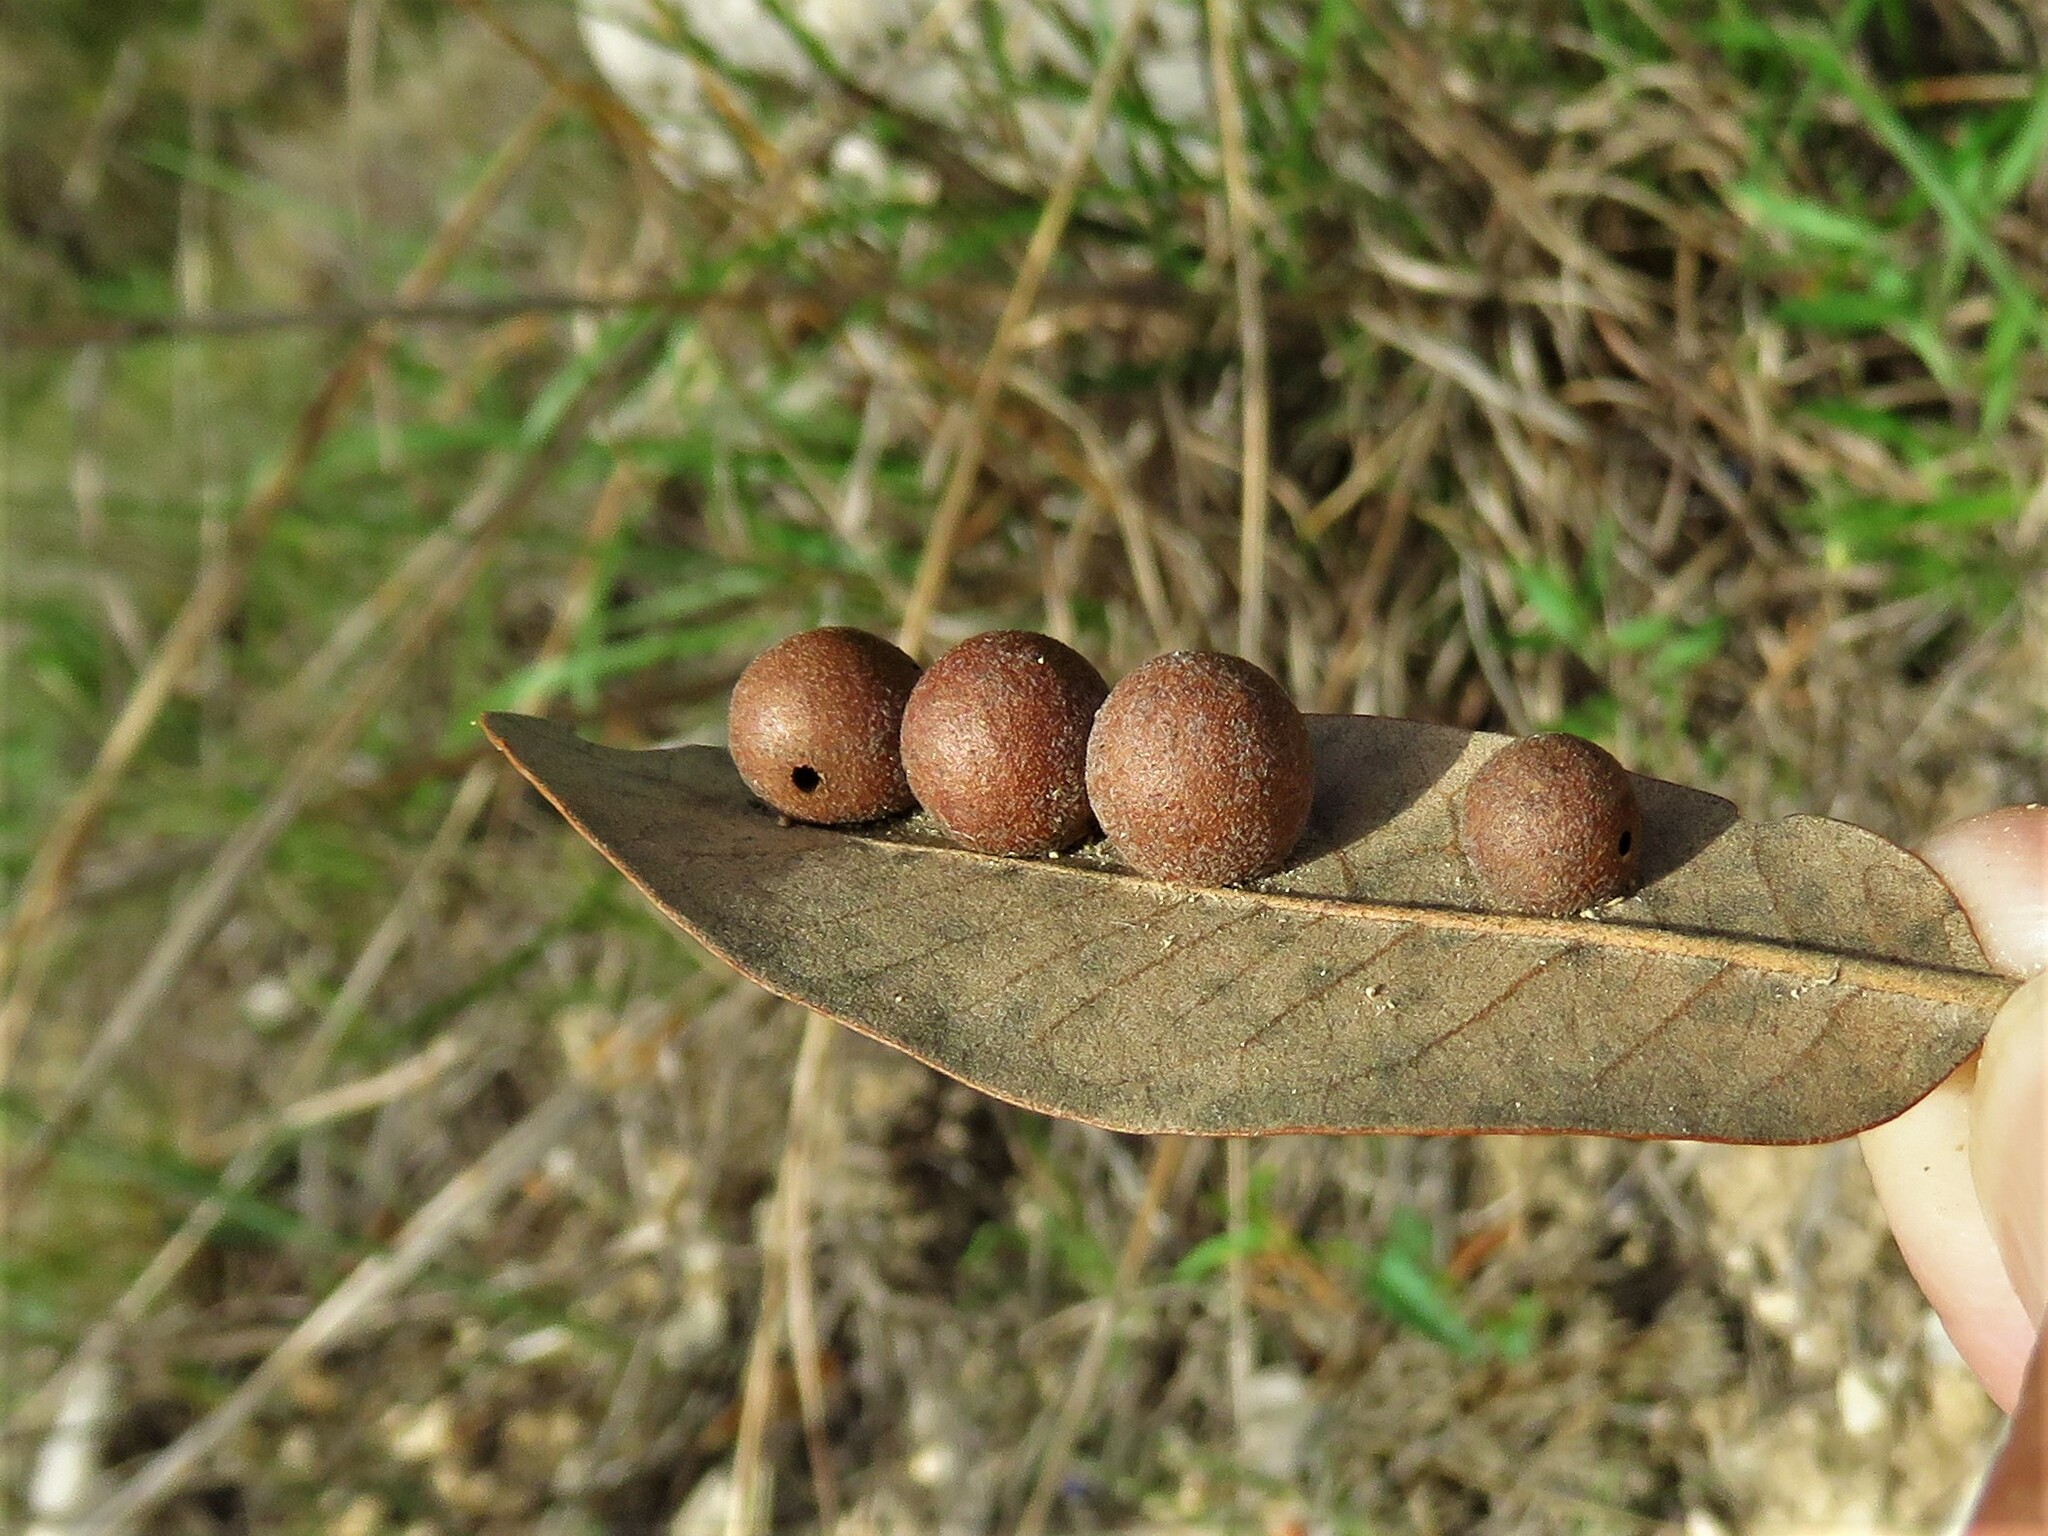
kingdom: Animalia
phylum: Arthropoda
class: Insecta
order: Hymenoptera
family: Cynipidae
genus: Belonocnema
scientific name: Belonocnema kinseyi
